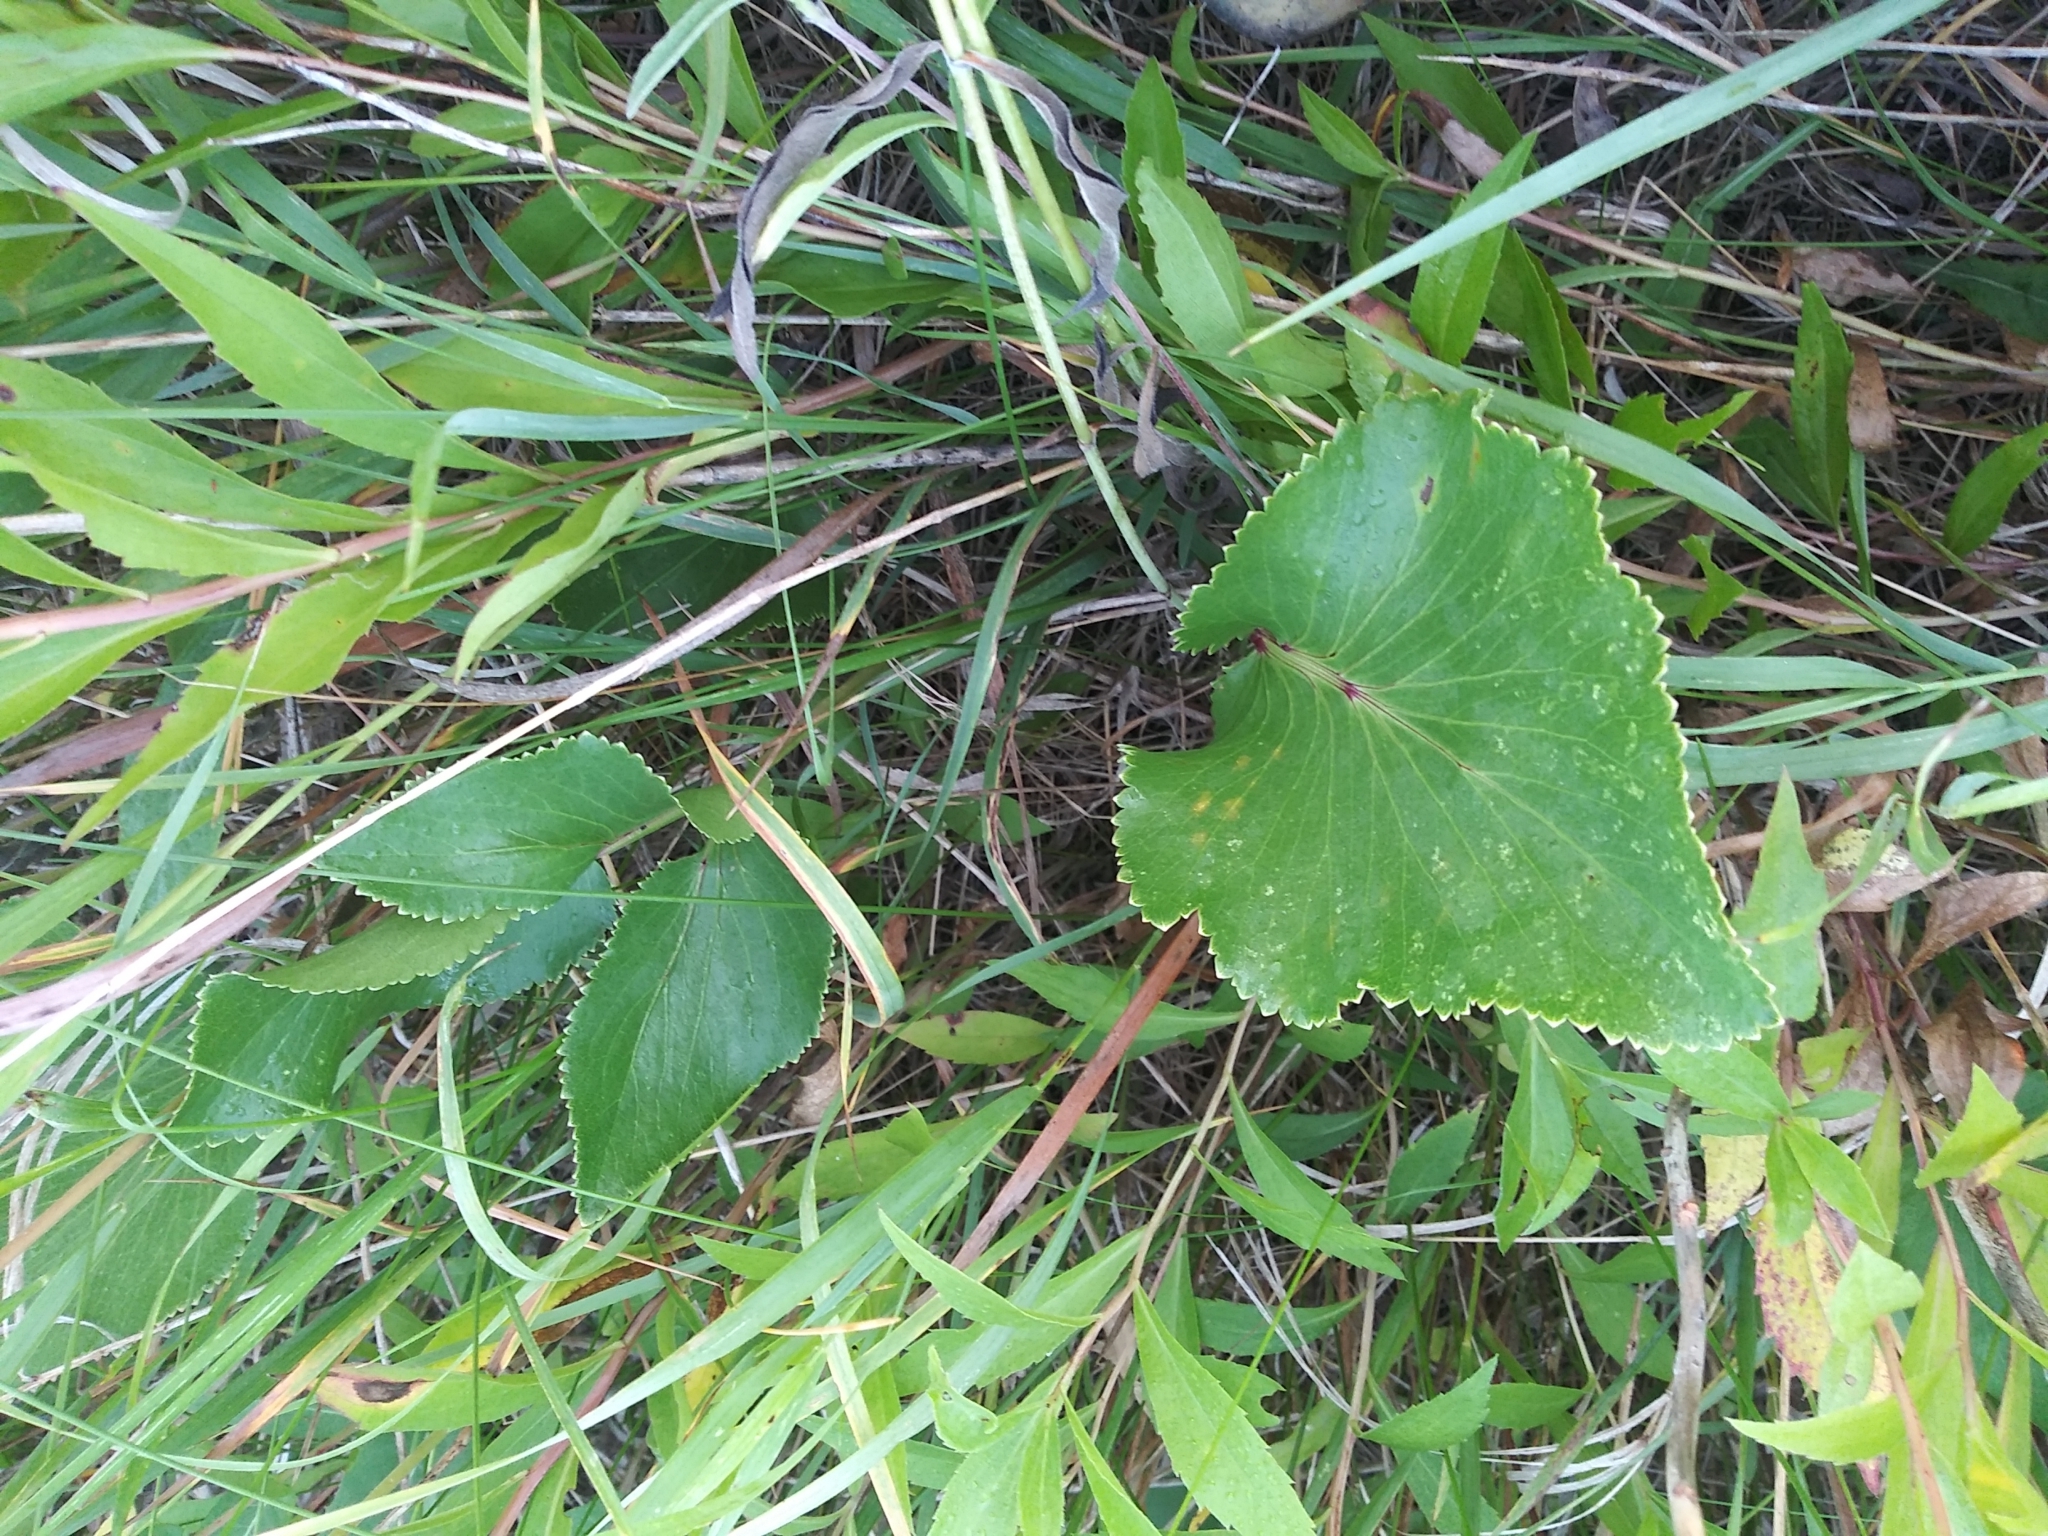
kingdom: Plantae
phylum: Tracheophyta
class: Magnoliopsida
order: Apiales
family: Apiaceae
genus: Zizia
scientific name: Zizia aptera
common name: Heart-leaved alexanders
